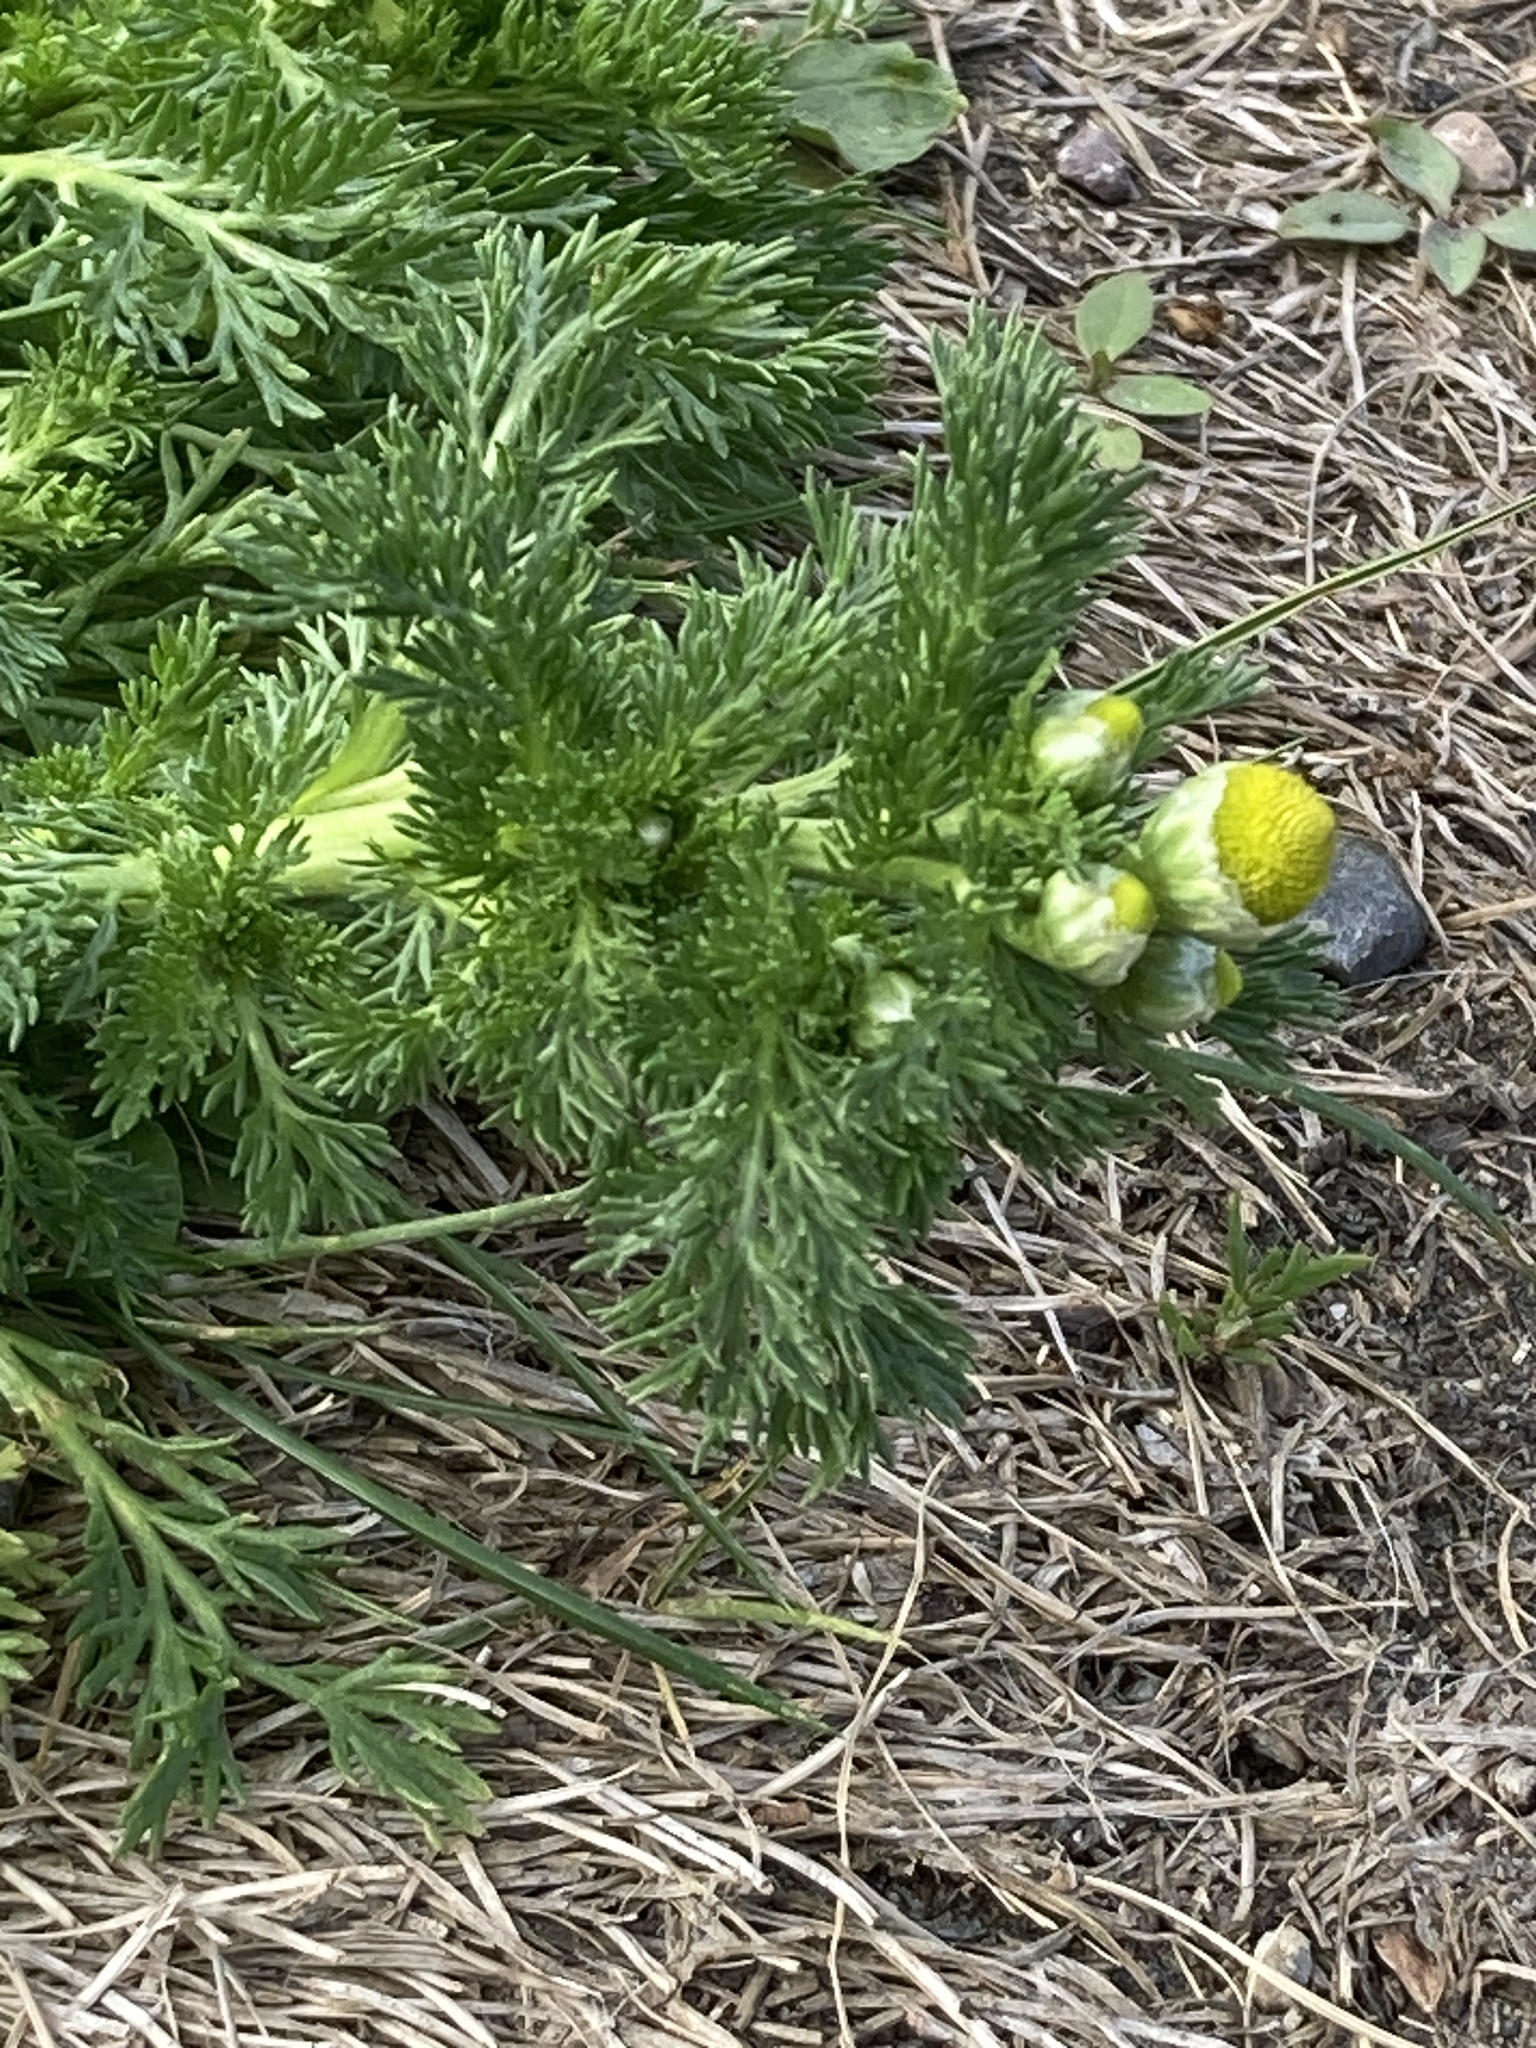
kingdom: Plantae
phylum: Tracheophyta
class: Magnoliopsida
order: Asterales
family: Asteraceae
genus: Matricaria
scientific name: Matricaria discoidea
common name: Disc mayweed
